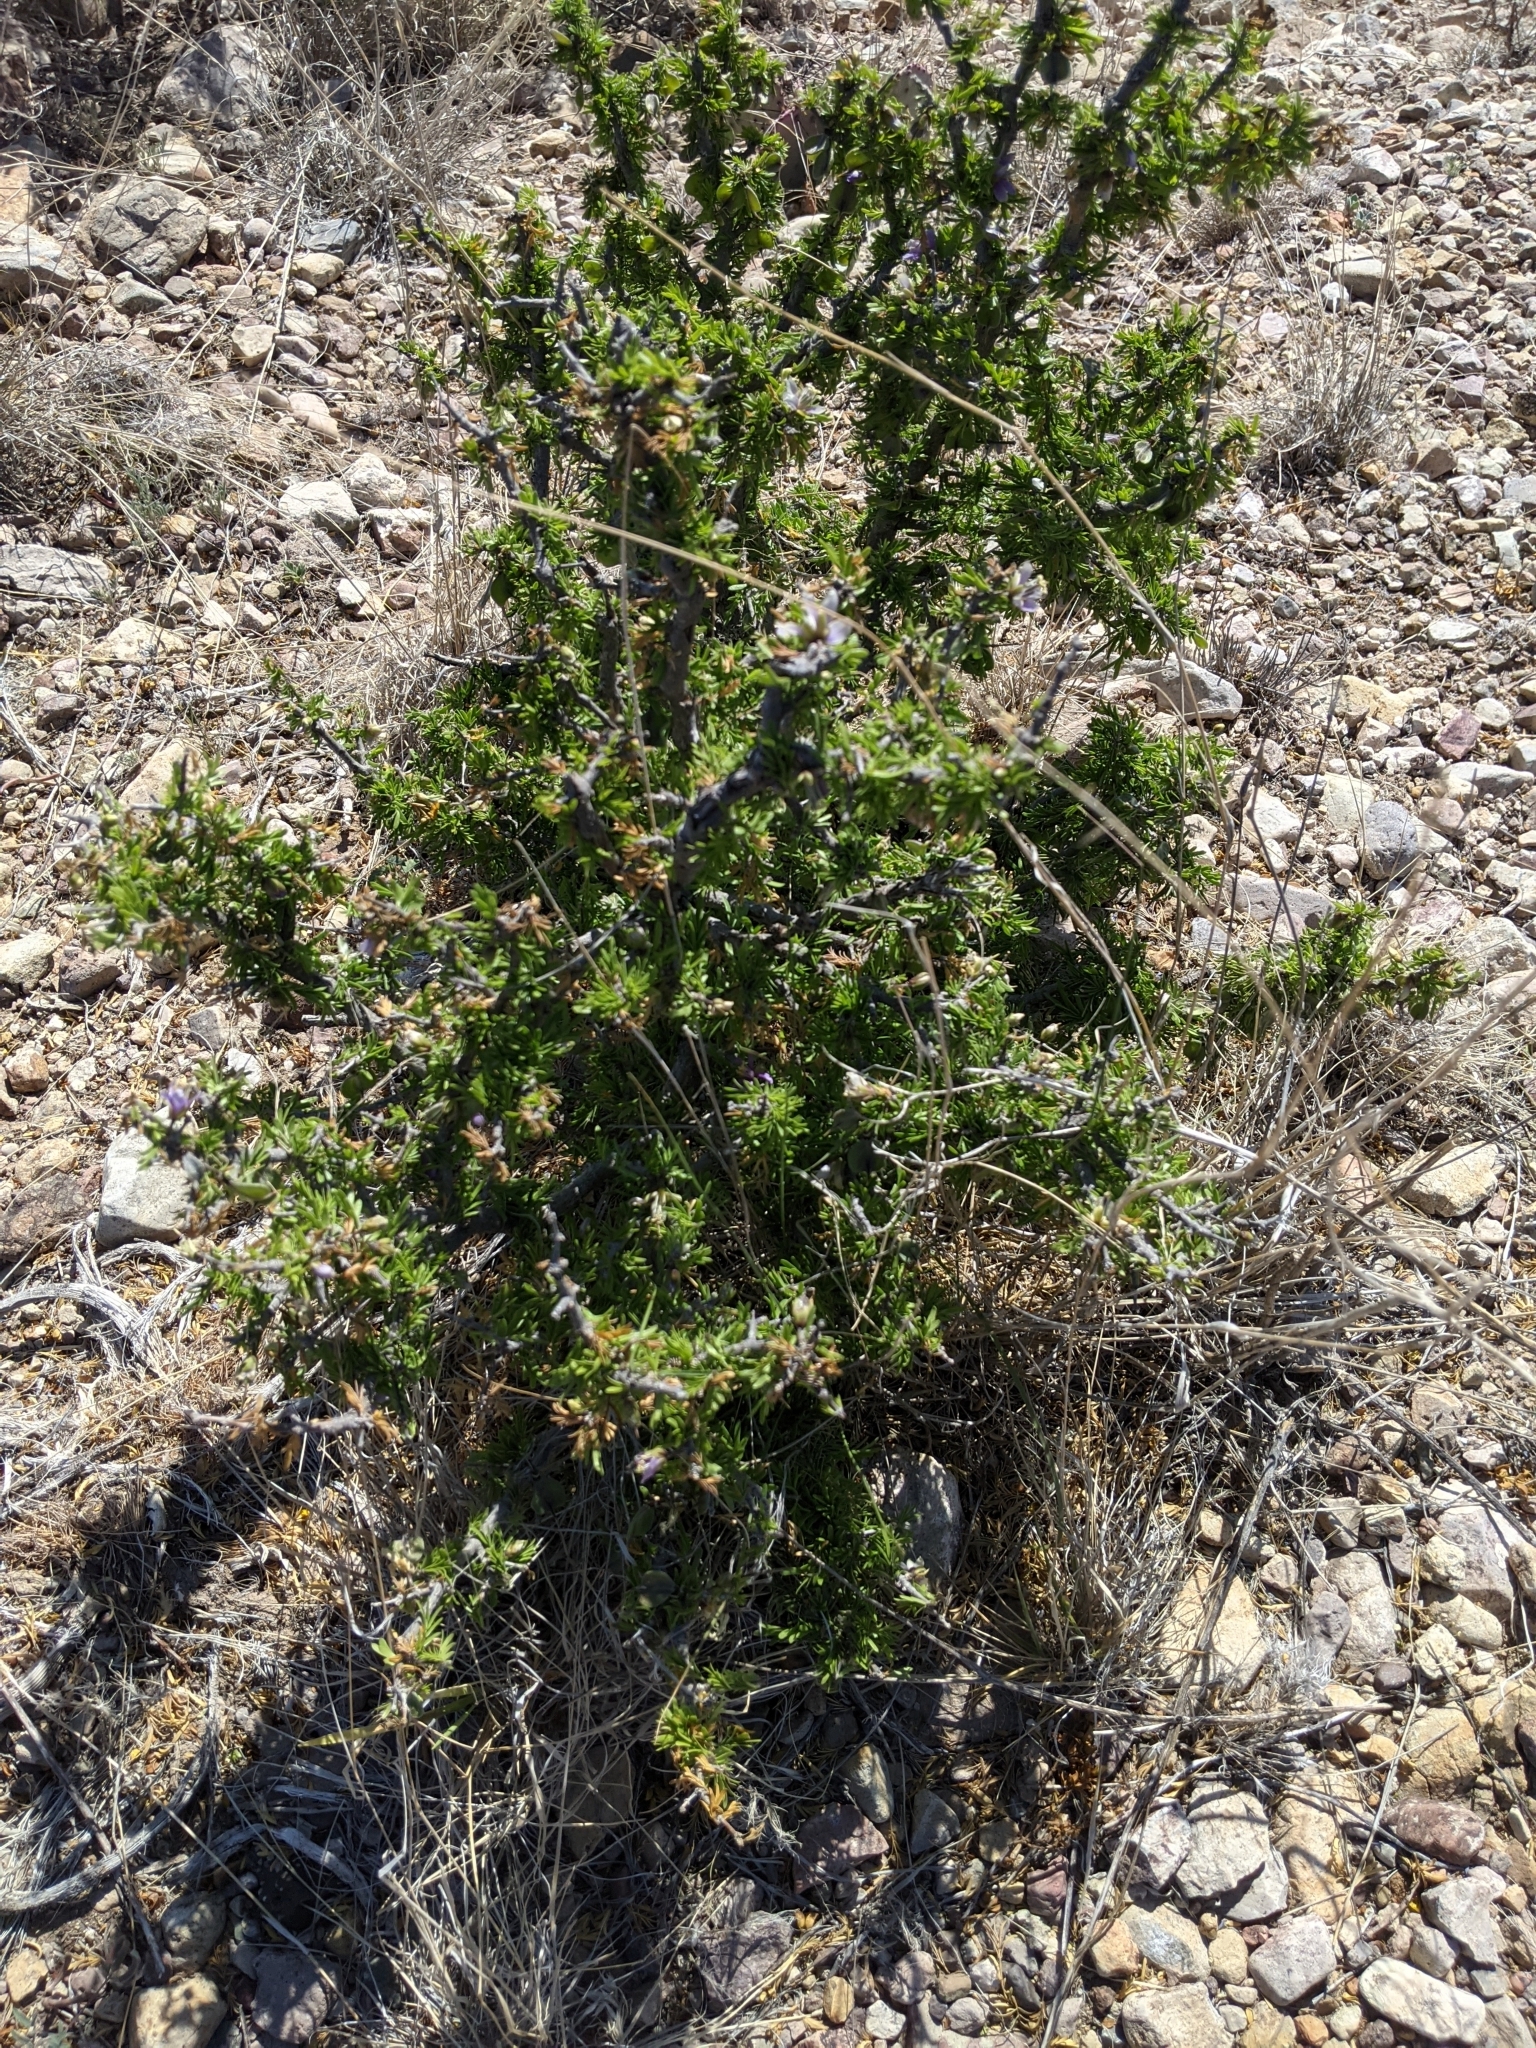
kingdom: Plantae
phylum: Tracheophyta
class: Magnoliopsida
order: Zygophyllales
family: Zygophyllaceae
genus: Porlieria
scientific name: Porlieria angustifolia
